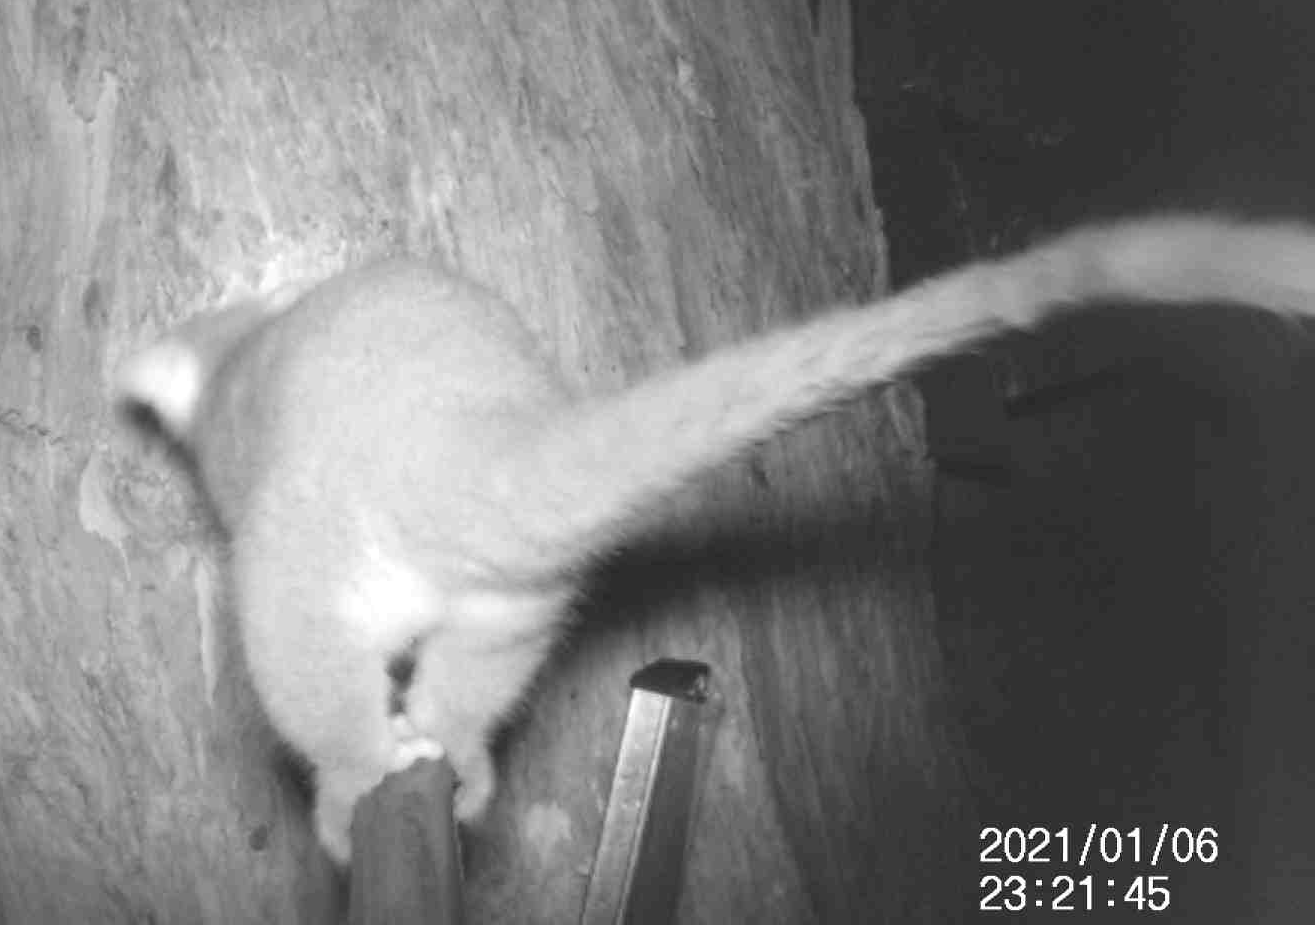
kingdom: Animalia
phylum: Chordata
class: Mammalia
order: Diprotodontia
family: Pseudocheiridae
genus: Pseudocheirus
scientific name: Pseudocheirus peregrinus
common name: Common ringtail possum
